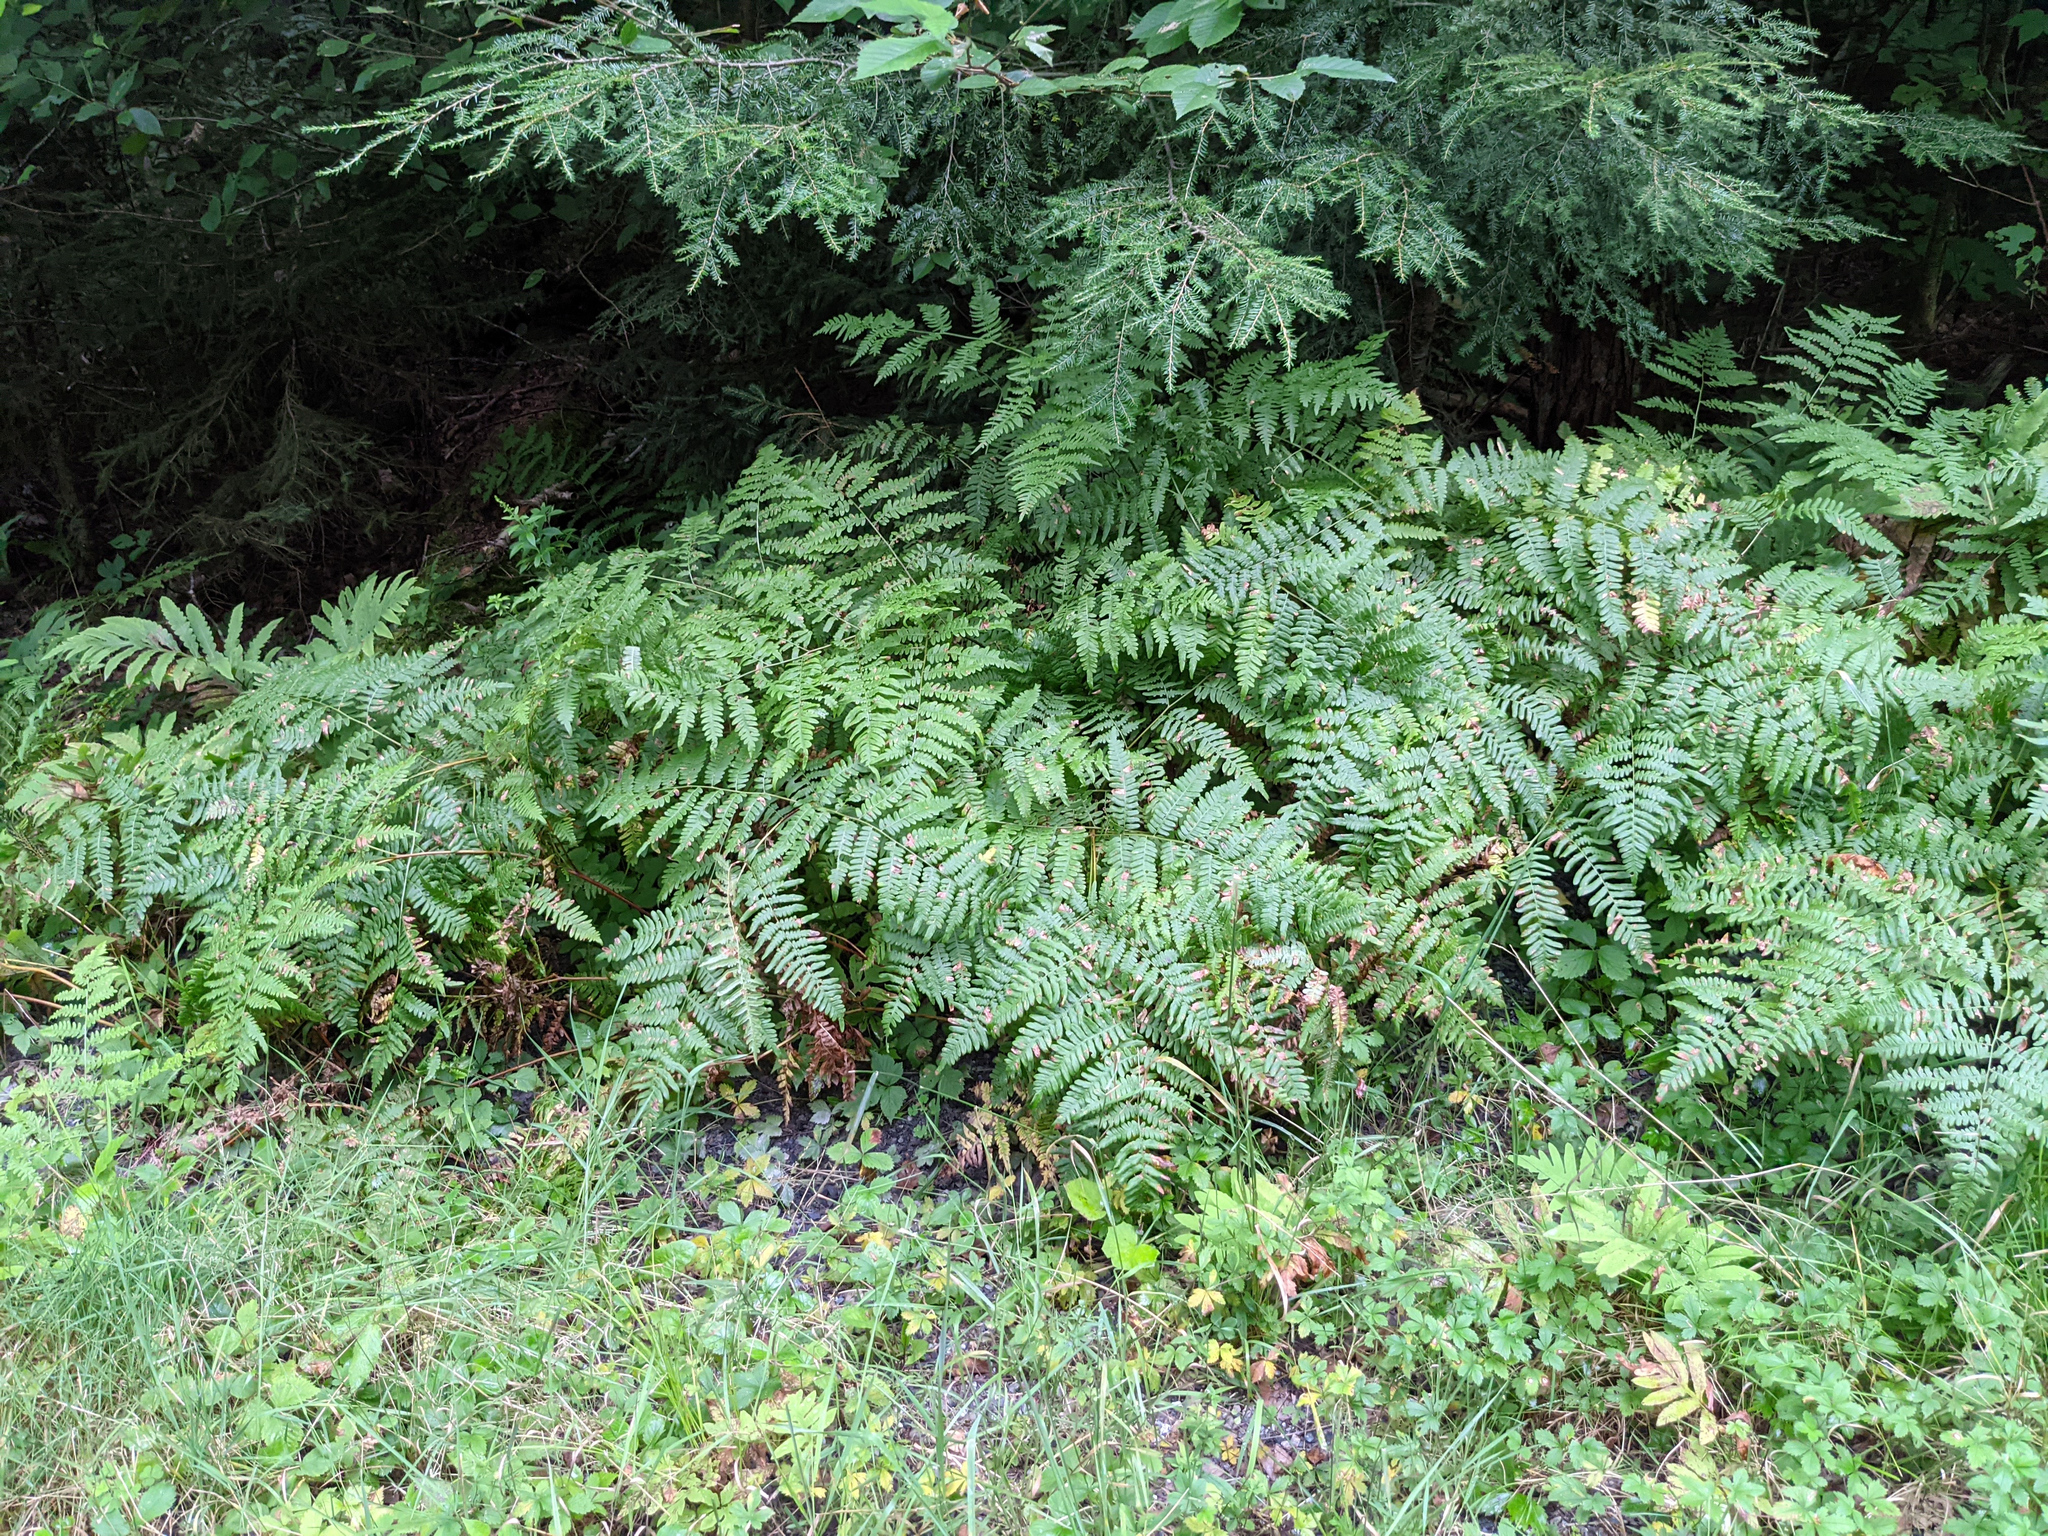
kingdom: Plantae
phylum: Tracheophyta
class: Polypodiopsida
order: Polypodiales
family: Dennstaedtiaceae
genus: Pteridium
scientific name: Pteridium aquilinum
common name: Bracken
